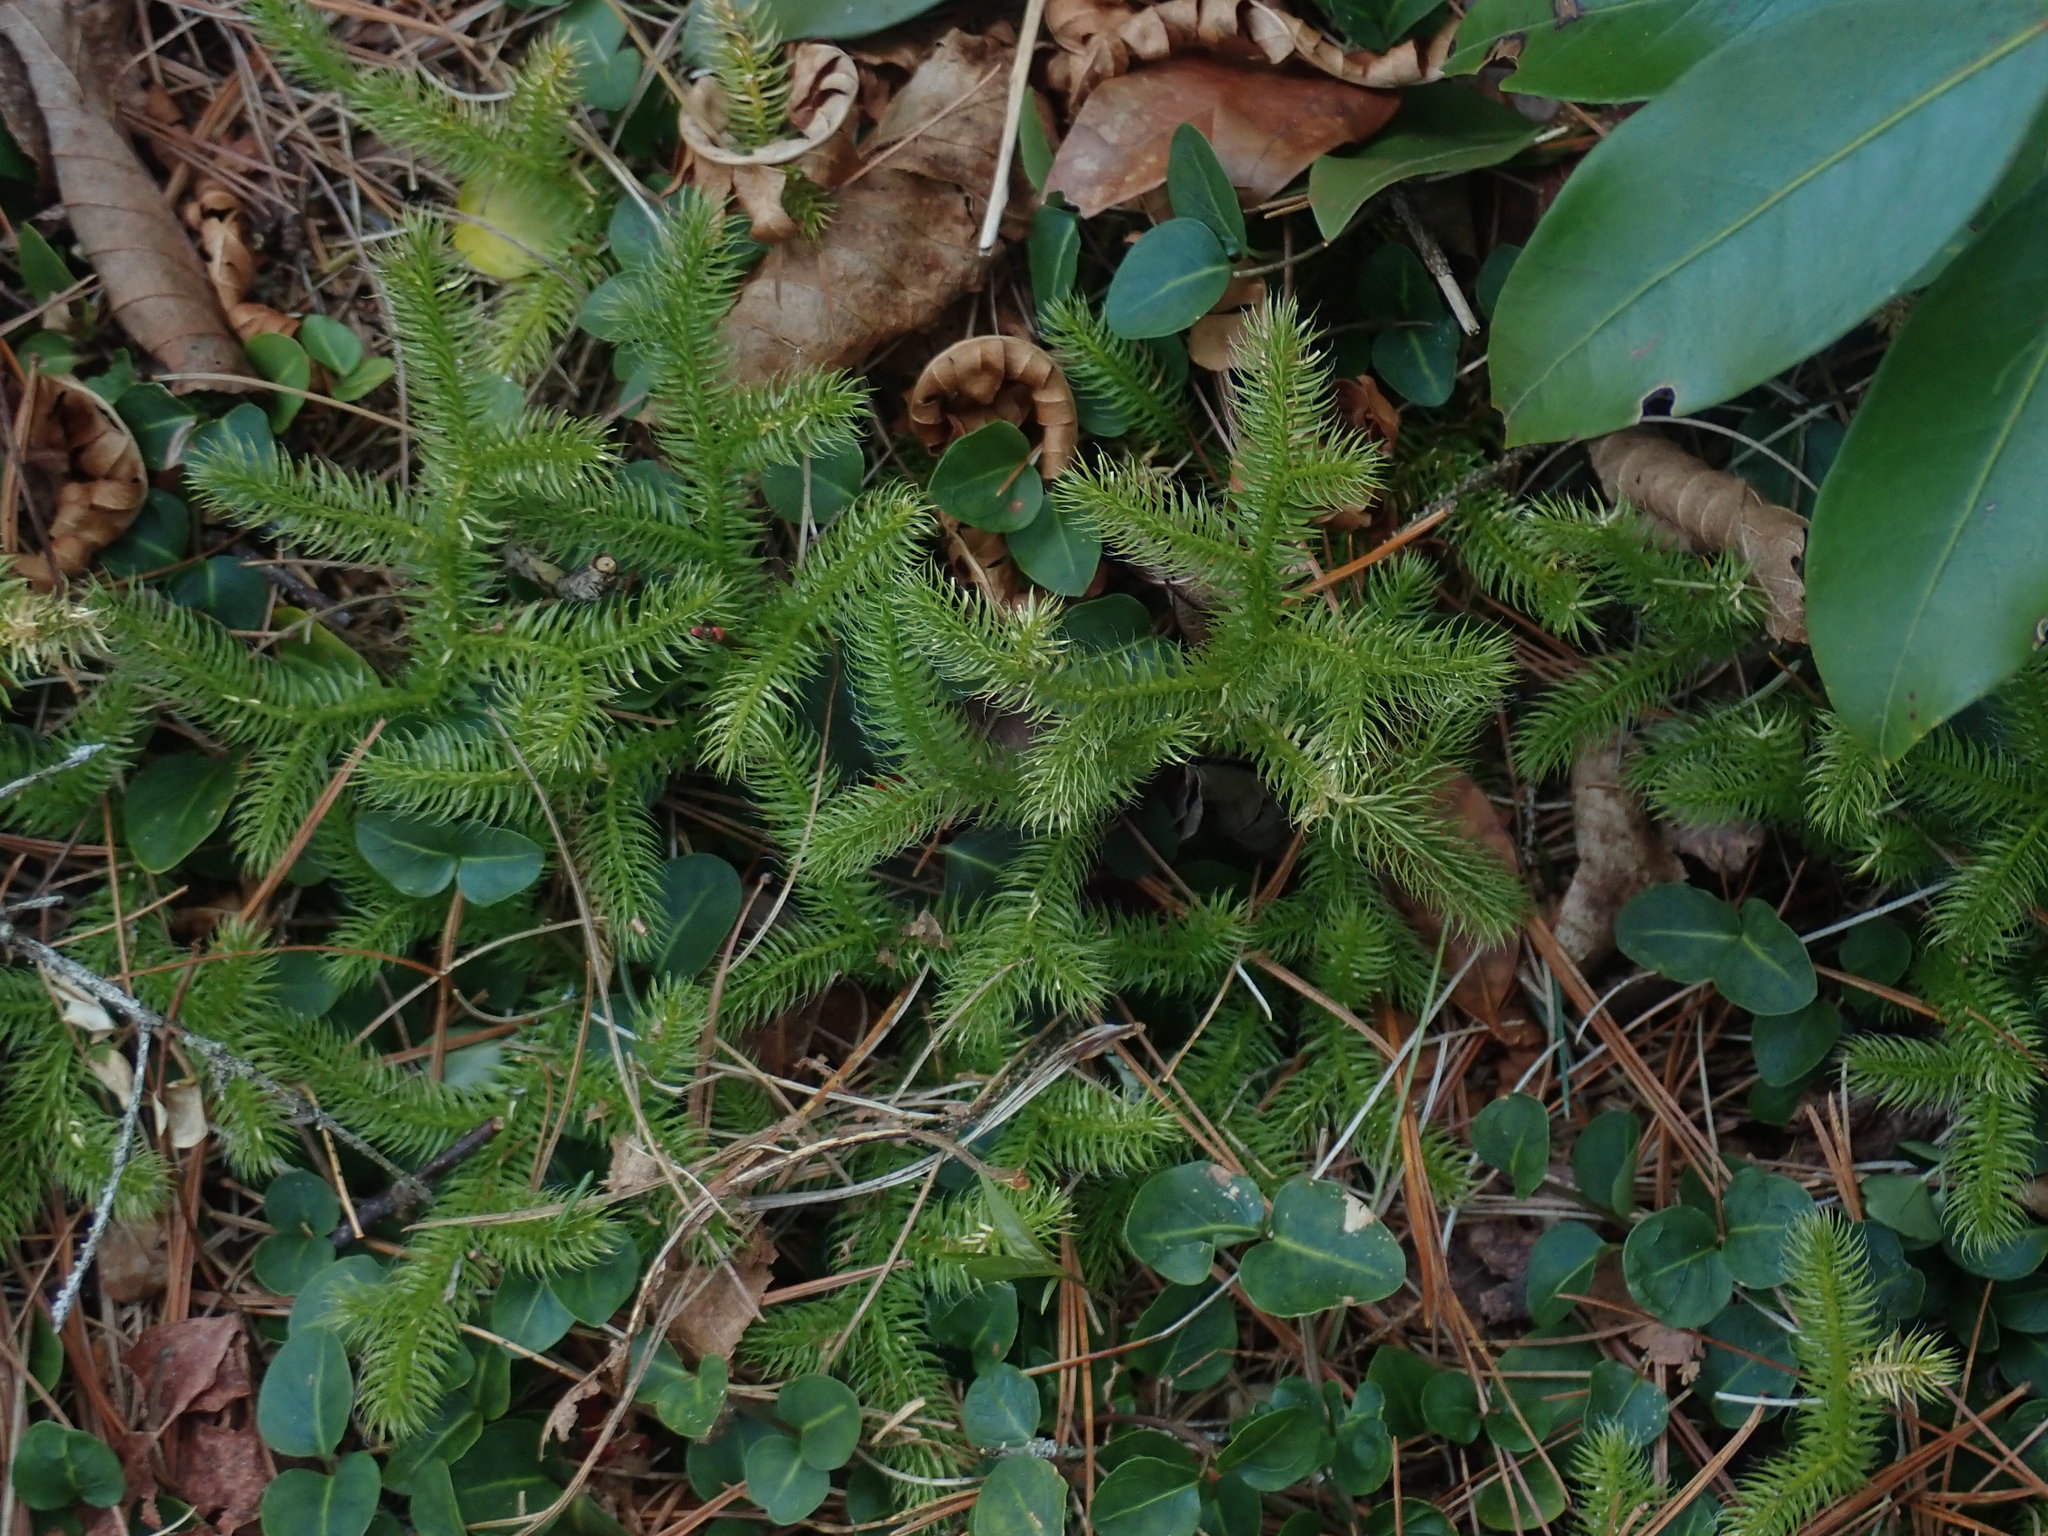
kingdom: Plantae
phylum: Tracheophyta
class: Lycopodiopsida
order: Lycopodiales
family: Lycopodiaceae
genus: Lycopodium
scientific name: Lycopodium clavatum
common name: Stag's-horn clubmoss
